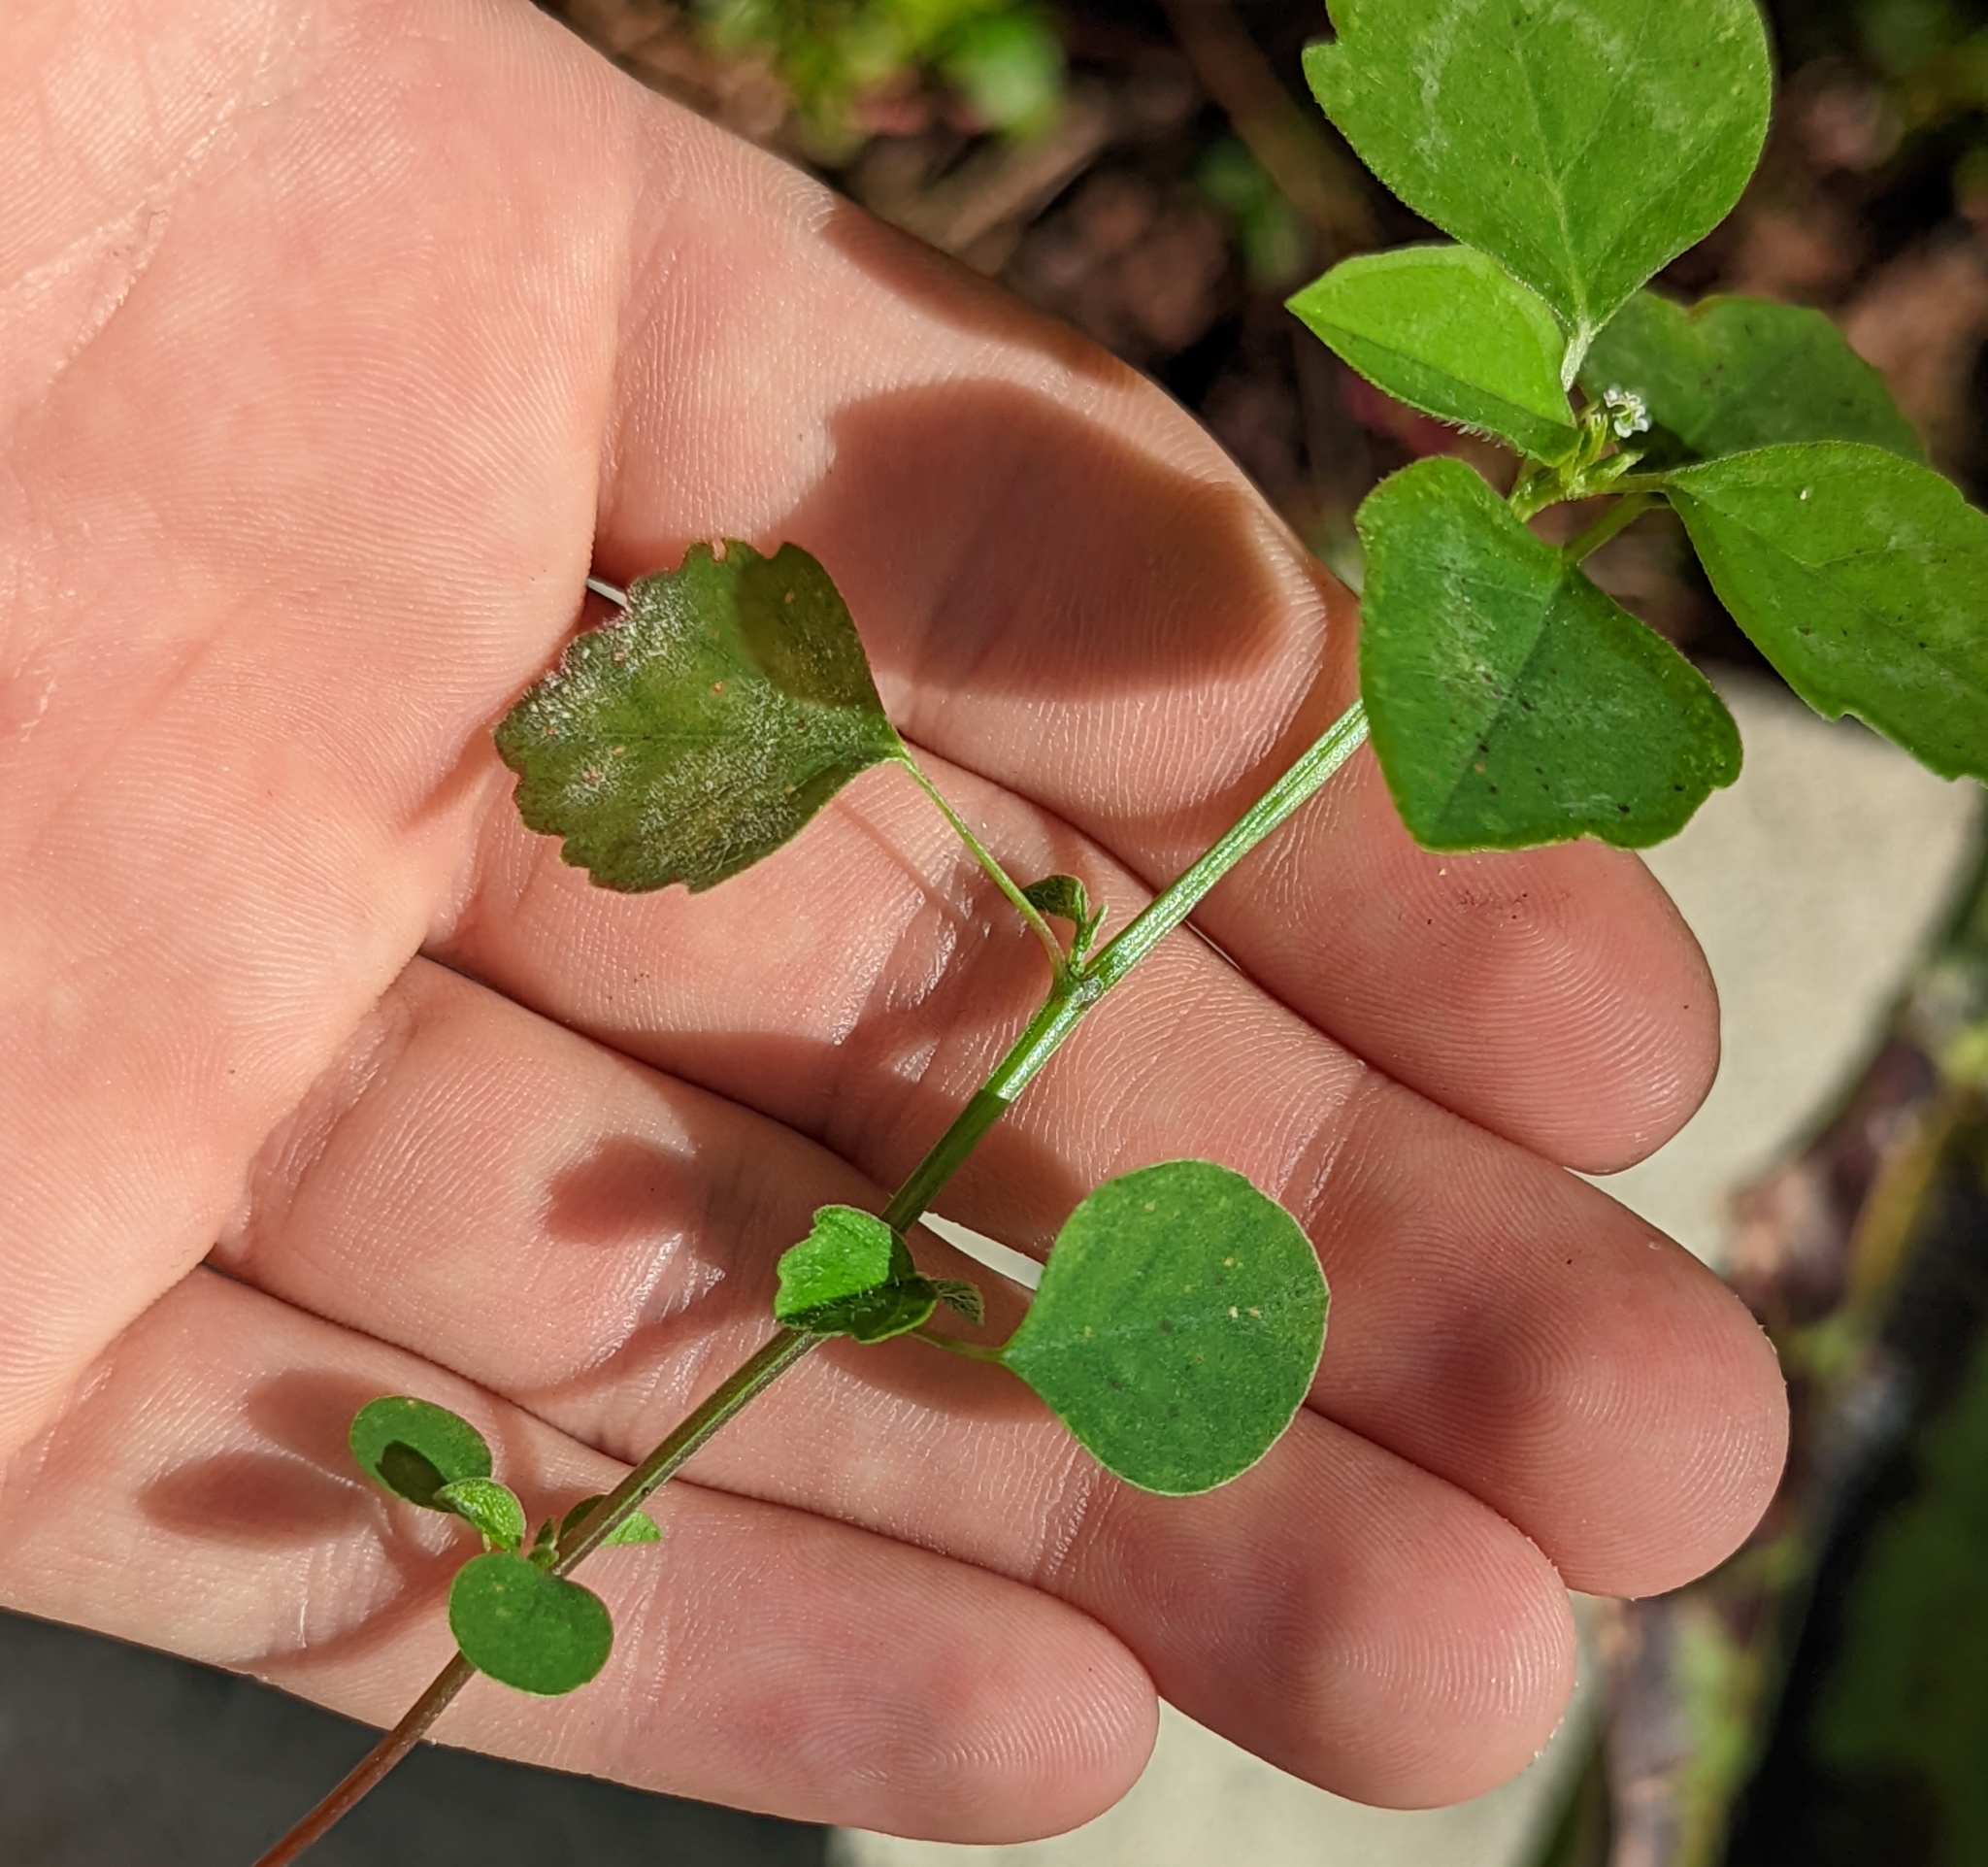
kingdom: Plantae
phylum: Tracheophyta
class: Magnoliopsida
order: Malpighiales
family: Euphorbiaceae
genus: Euphorbia
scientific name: Euphorbia graminea
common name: Grassleaf spurge
